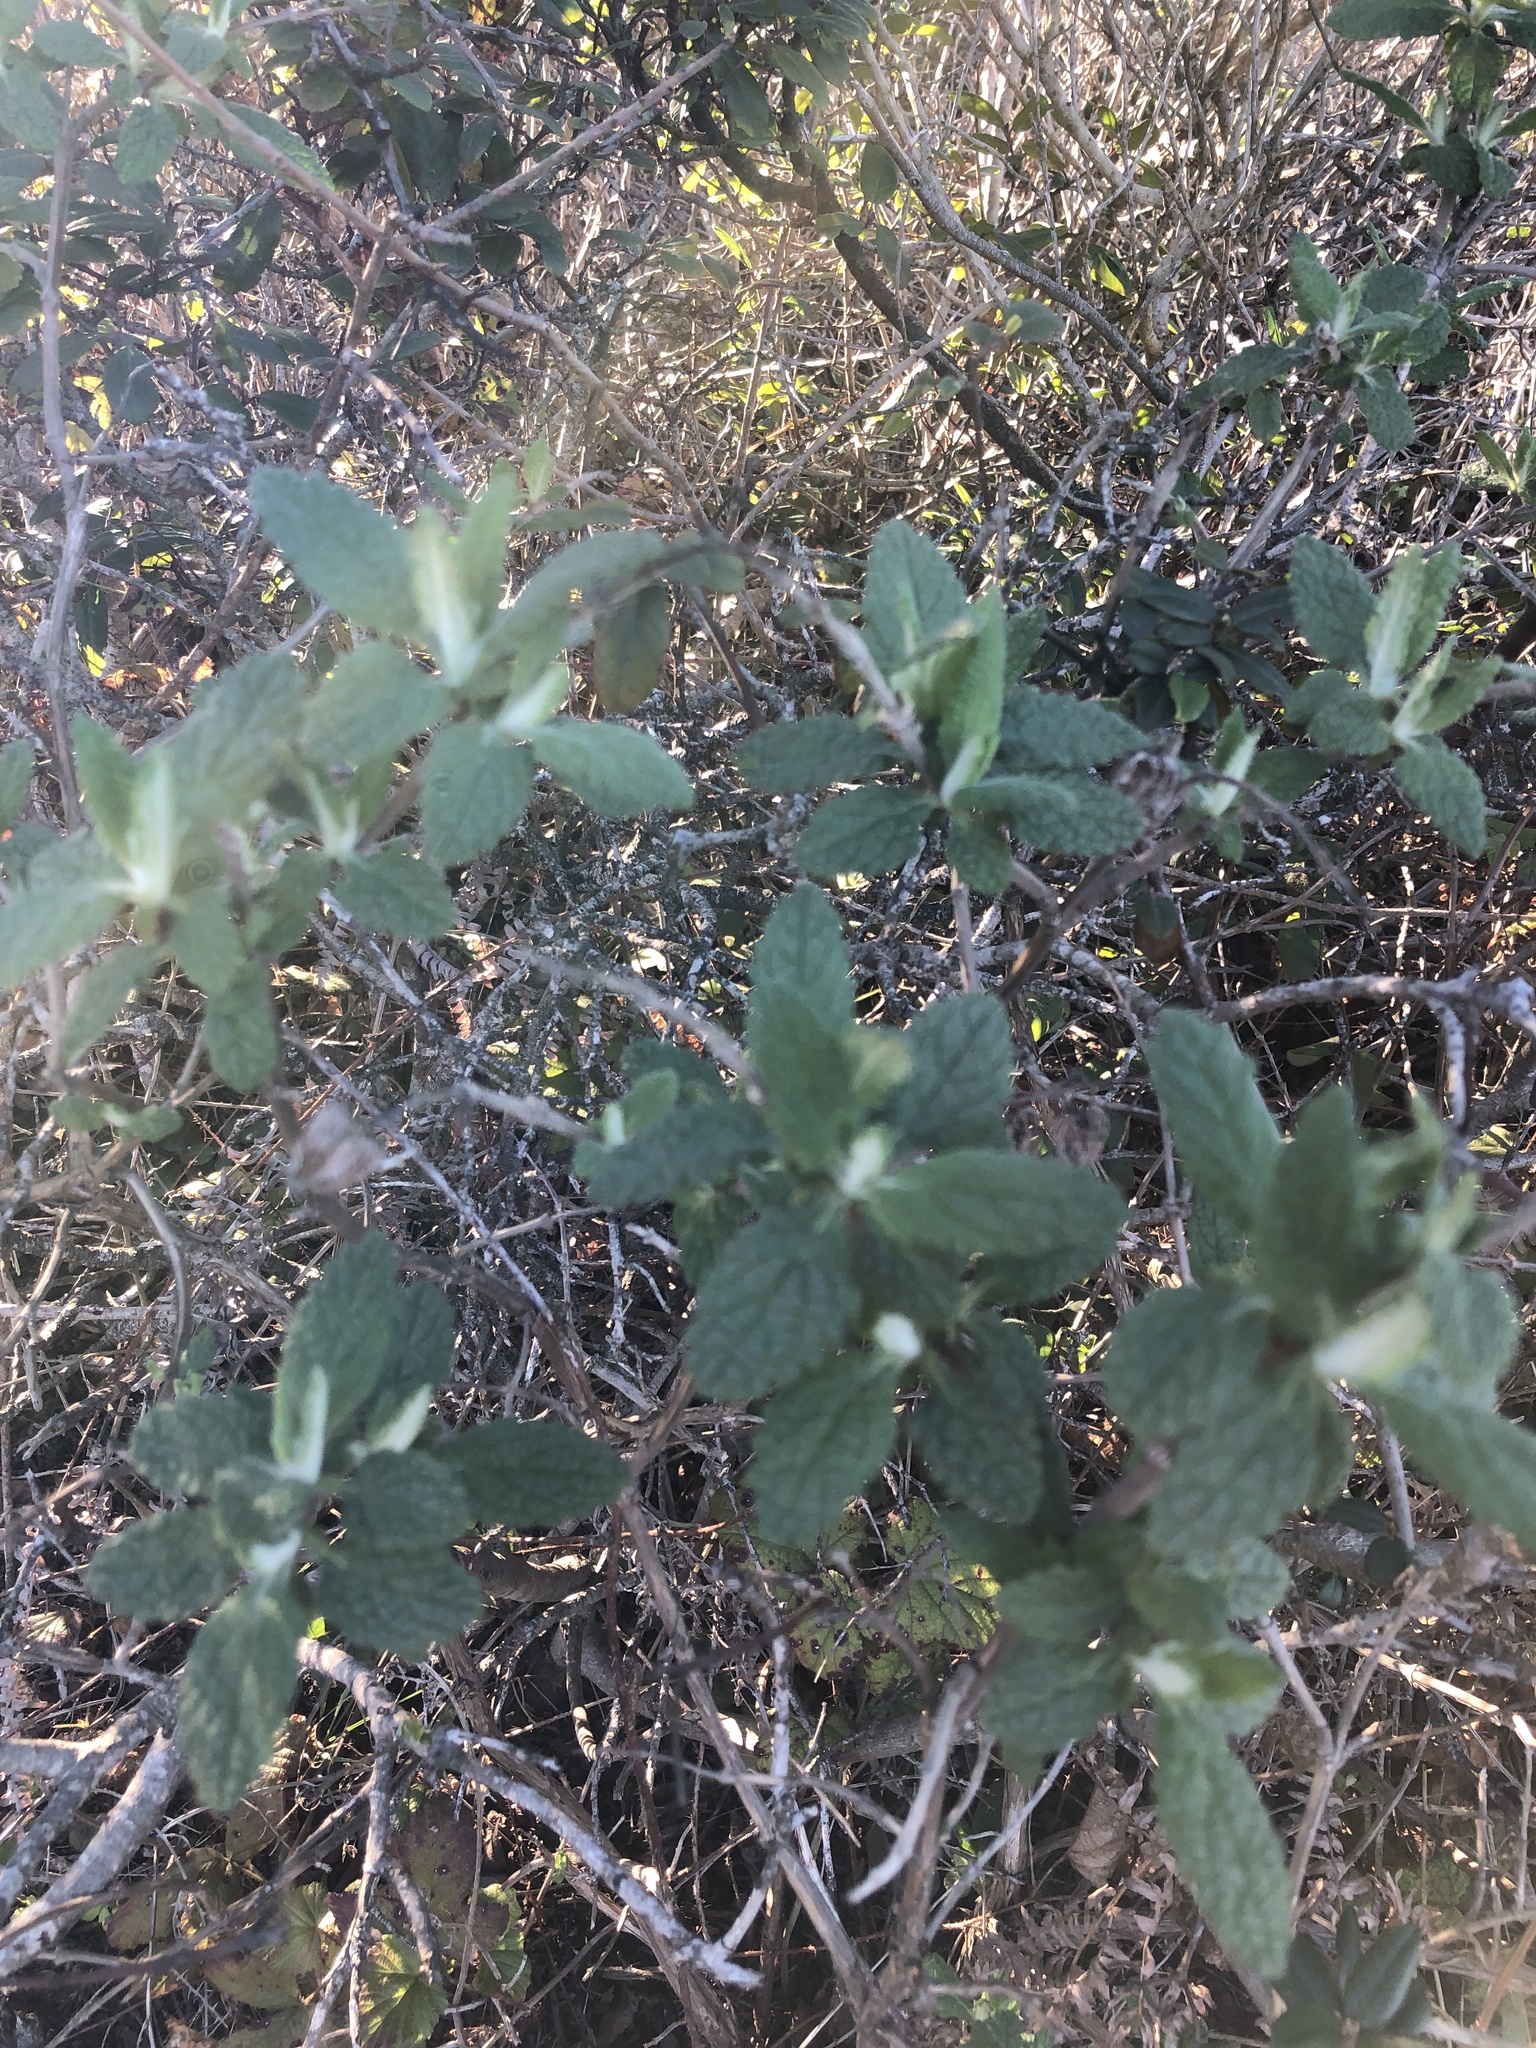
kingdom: Plantae
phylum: Tracheophyta
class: Magnoliopsida
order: Lamiales
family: Lamiaceae
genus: Lepechinia
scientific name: Lepechinia calycina
